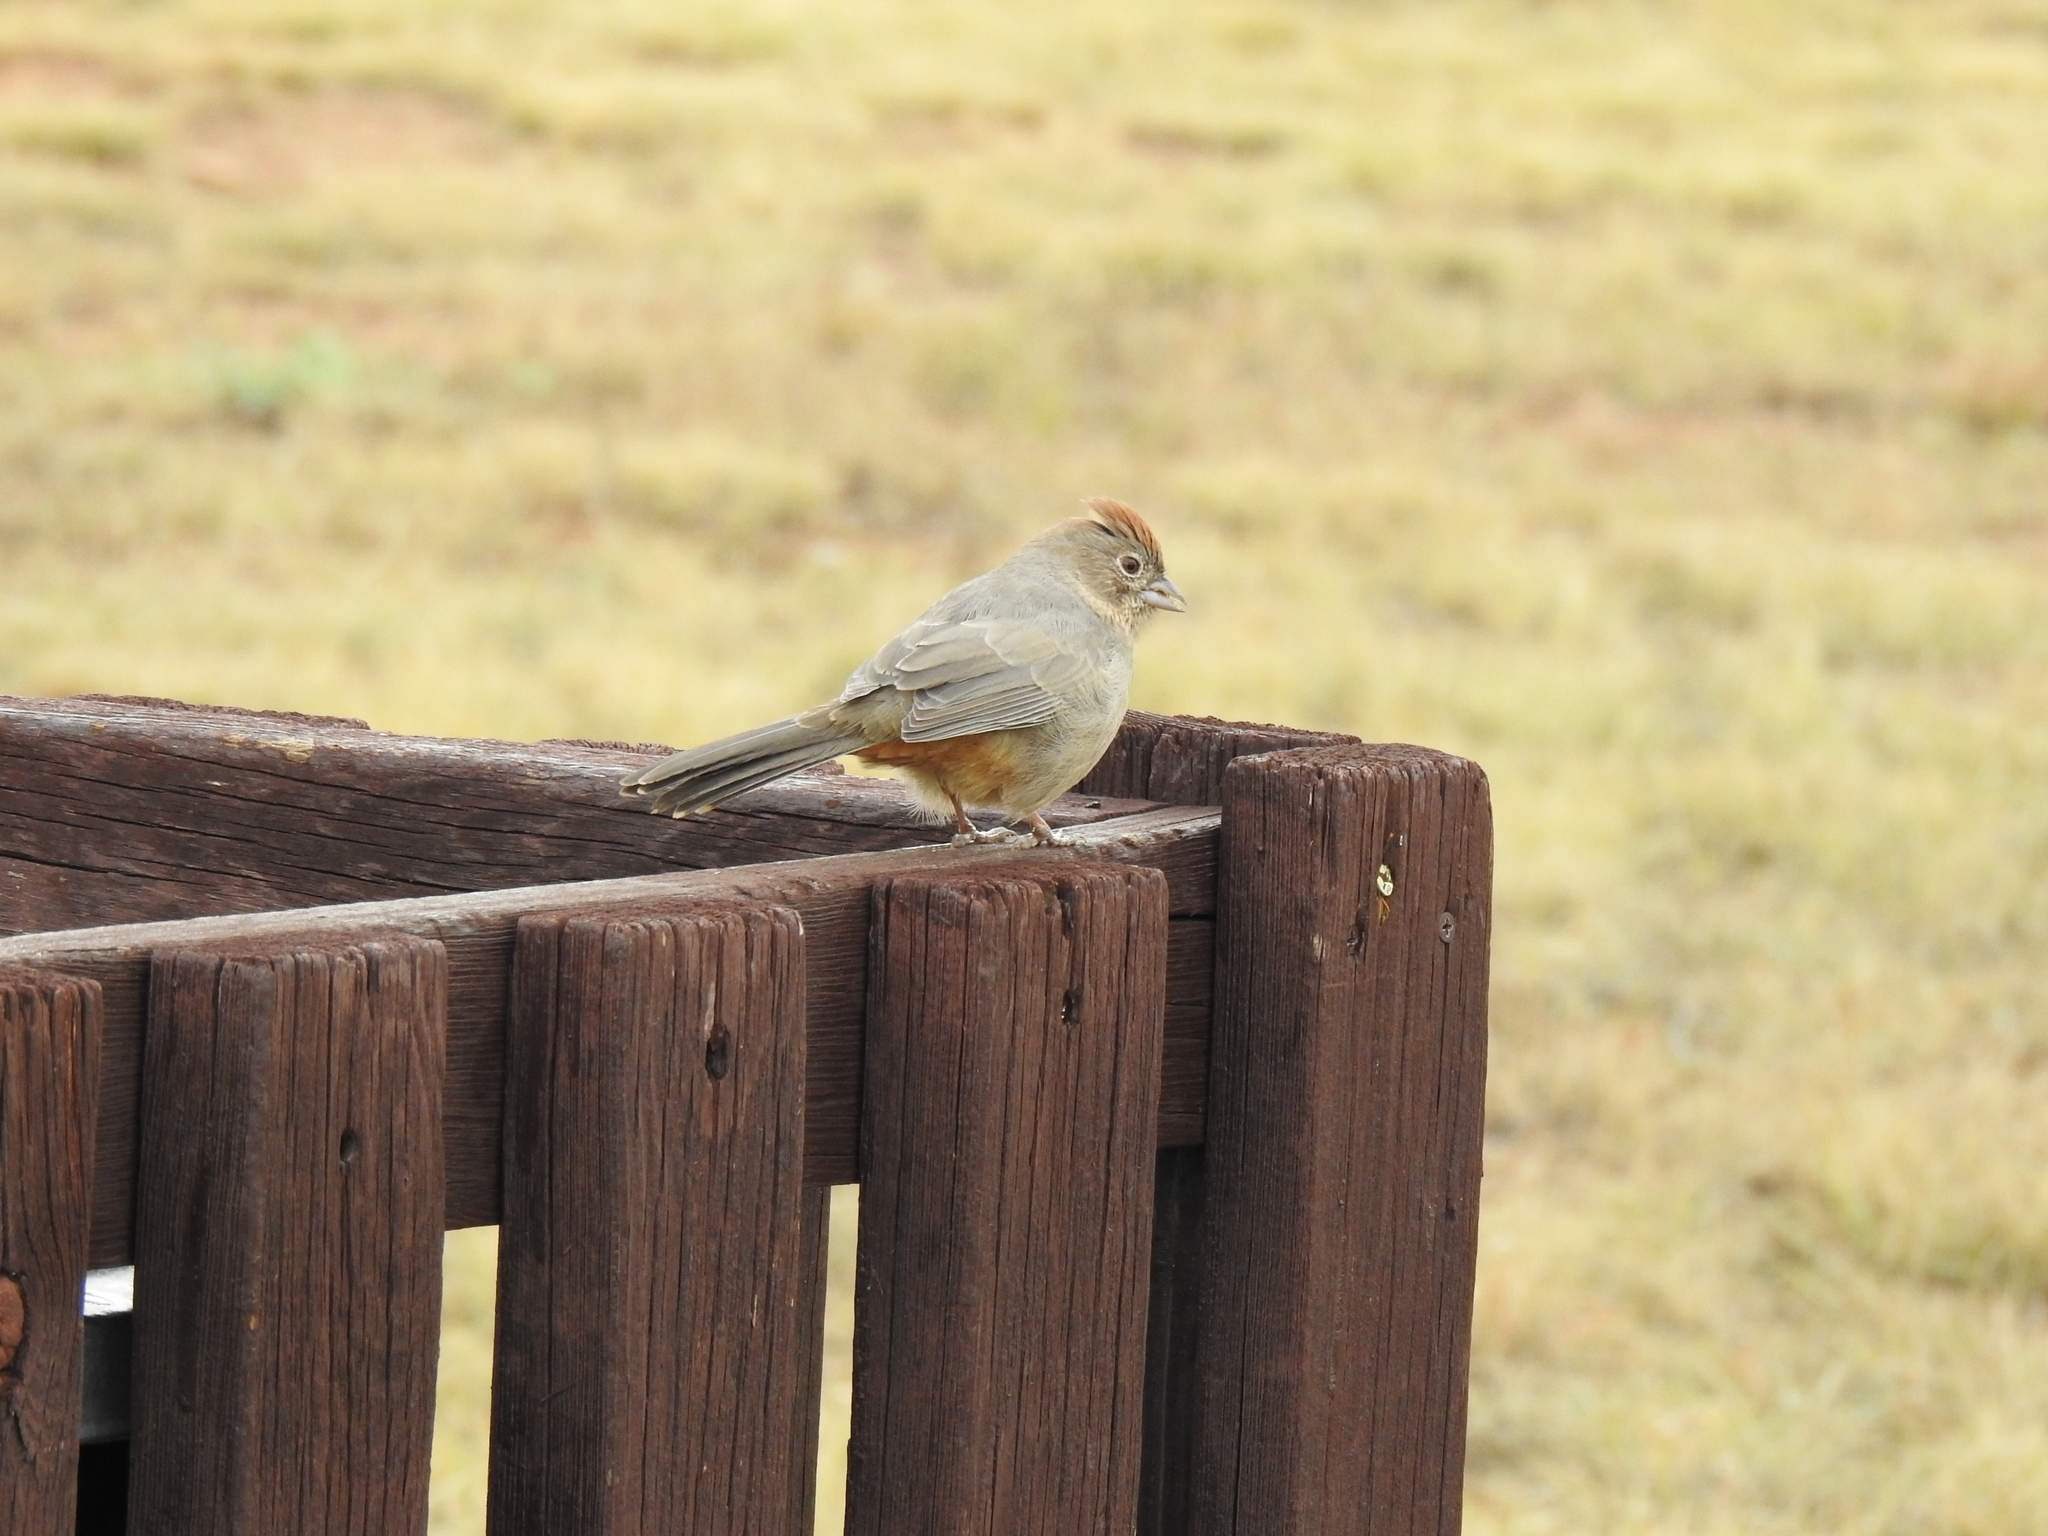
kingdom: Animalia
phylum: Chordata
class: Aves
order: Passeriformes
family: Passerellidae
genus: Melozone
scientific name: Melozone fusca
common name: Canyon towhee
